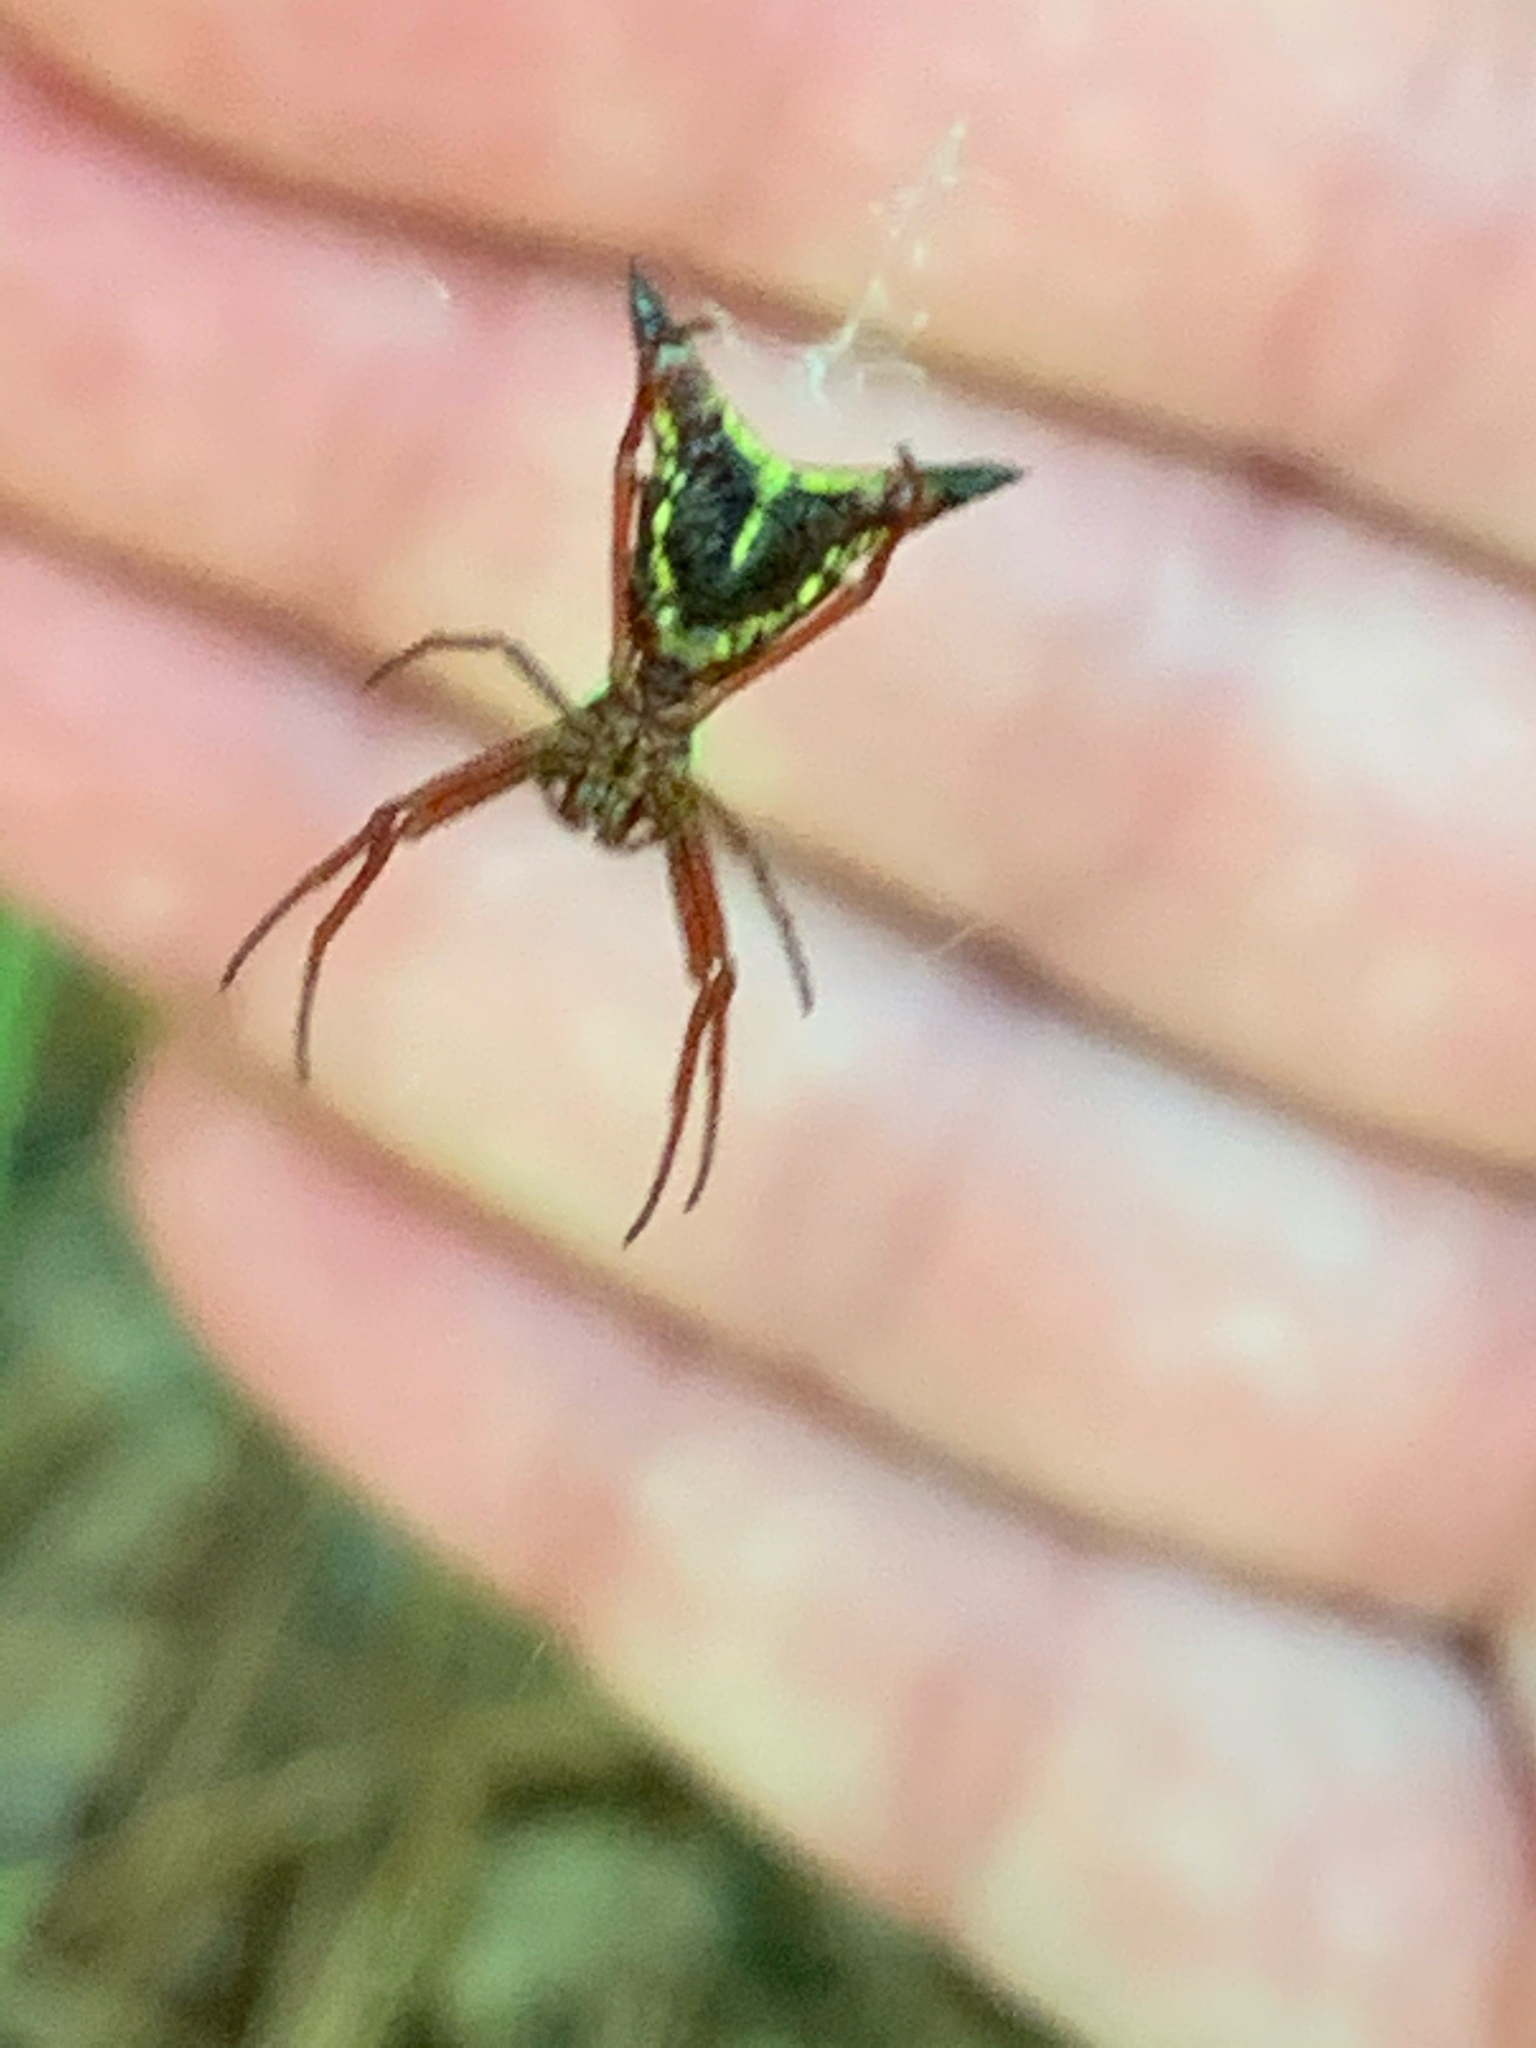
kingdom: Animalia
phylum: Arthropoda
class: Arachnida
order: Araneae
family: Araneidae
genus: Micrathena
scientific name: Micrathena sagittata
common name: Orb weavers
